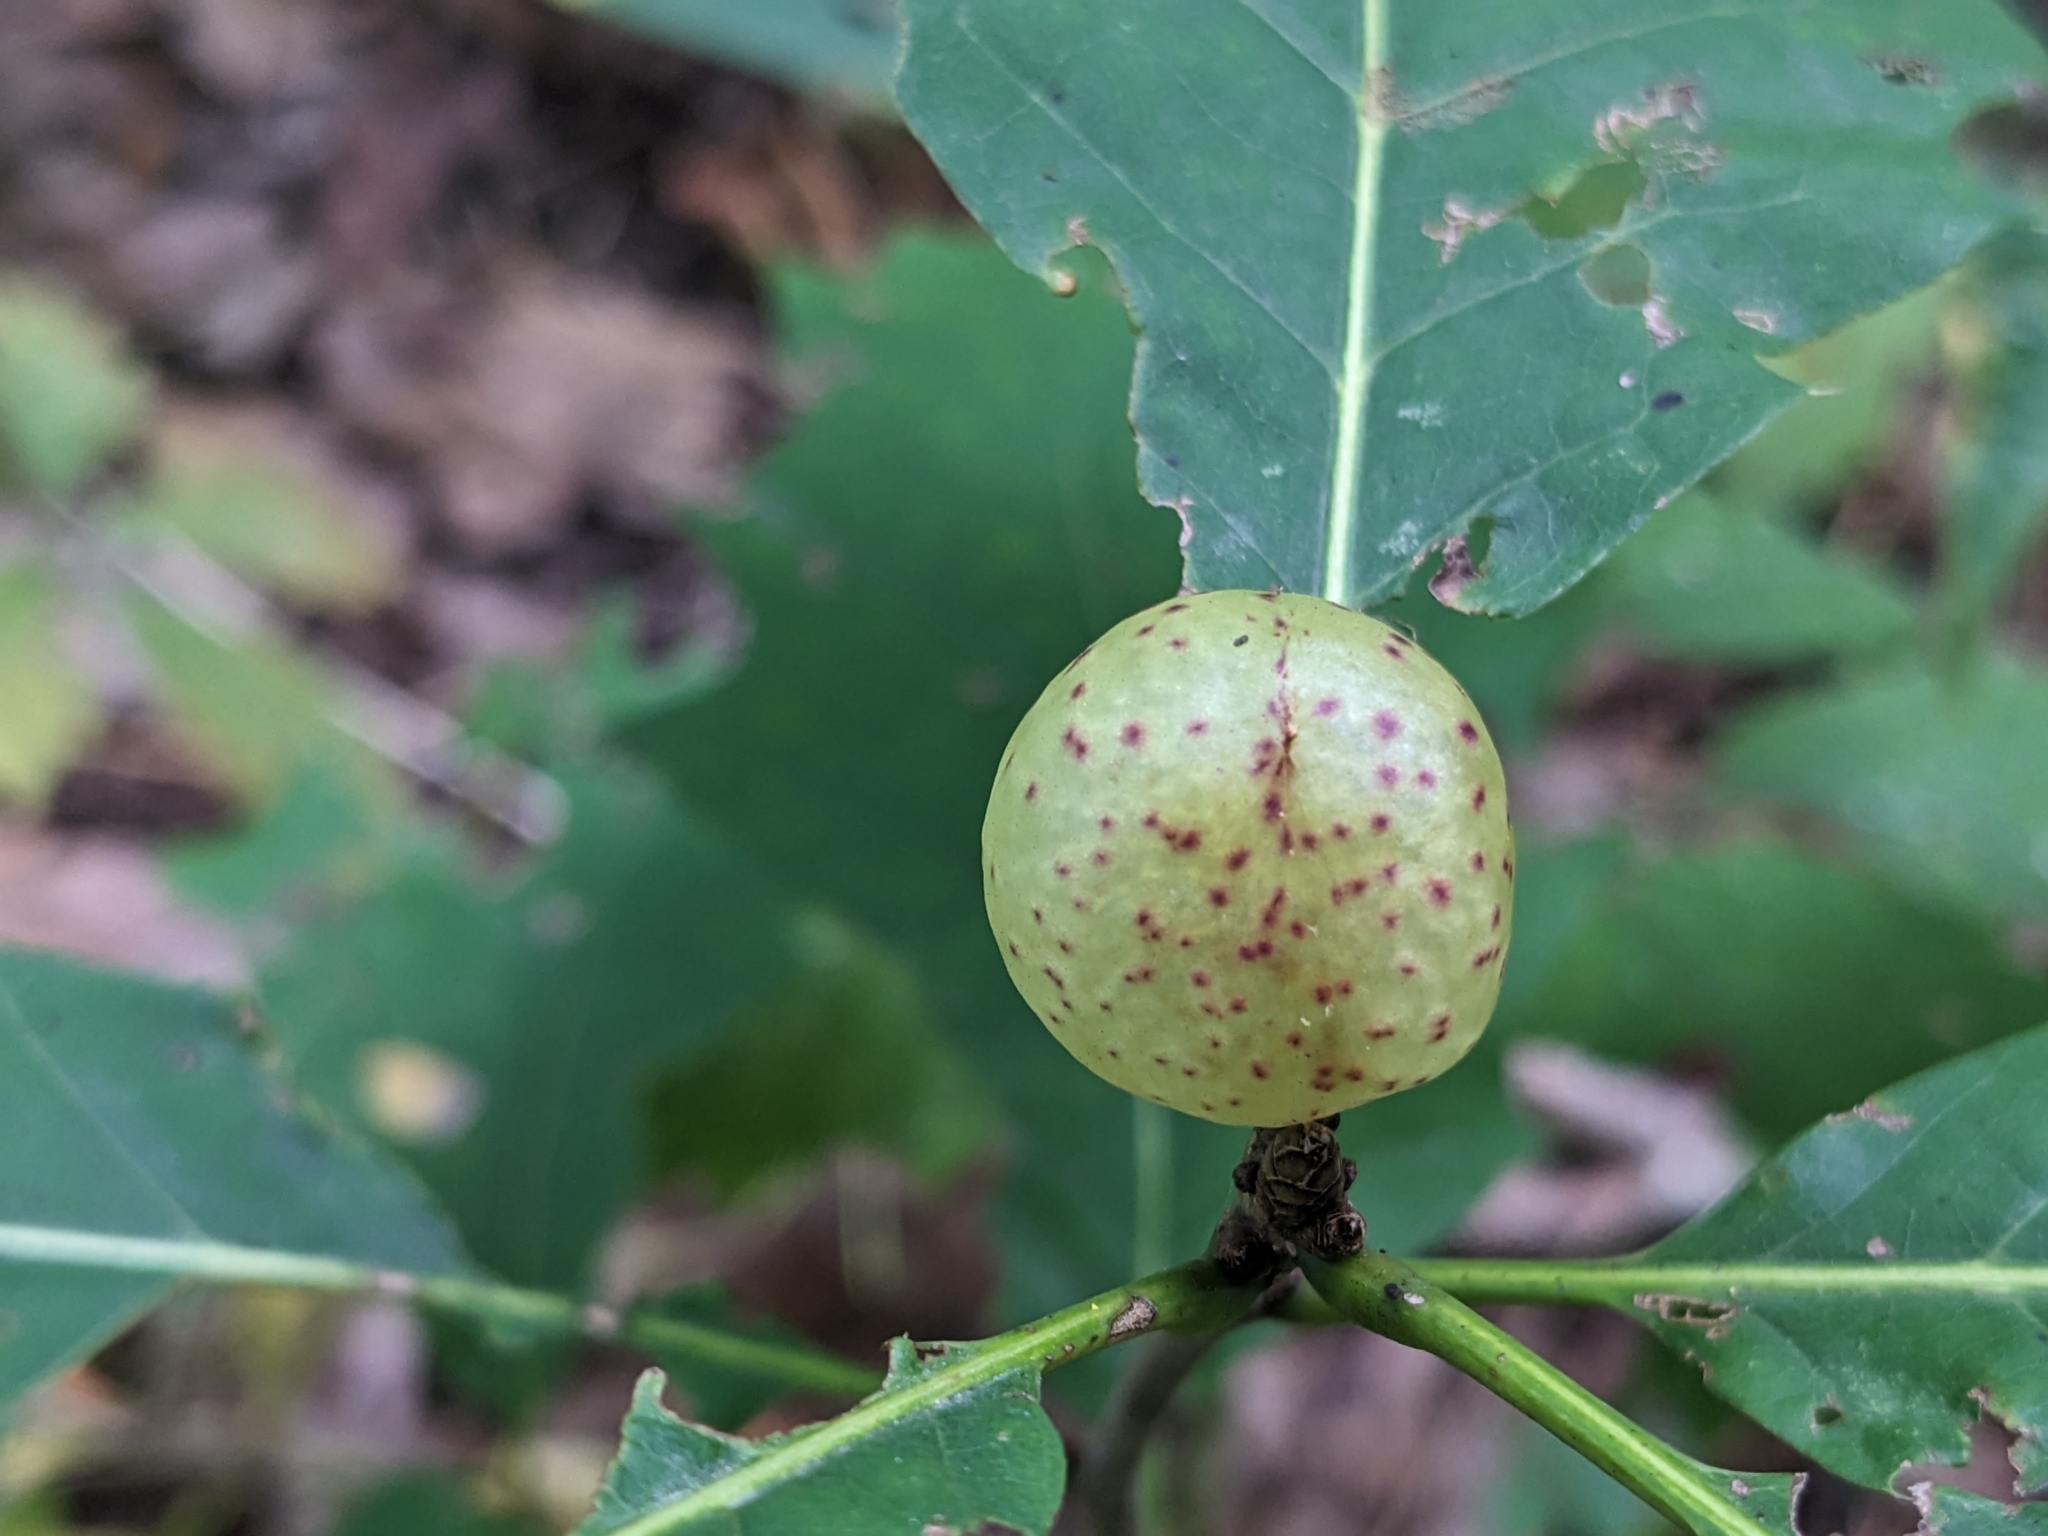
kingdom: Animalia
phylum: Arthropoda
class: Insecta
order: Hymenoptera
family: Cynipidae
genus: Amphibolips
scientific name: Amphibolips
